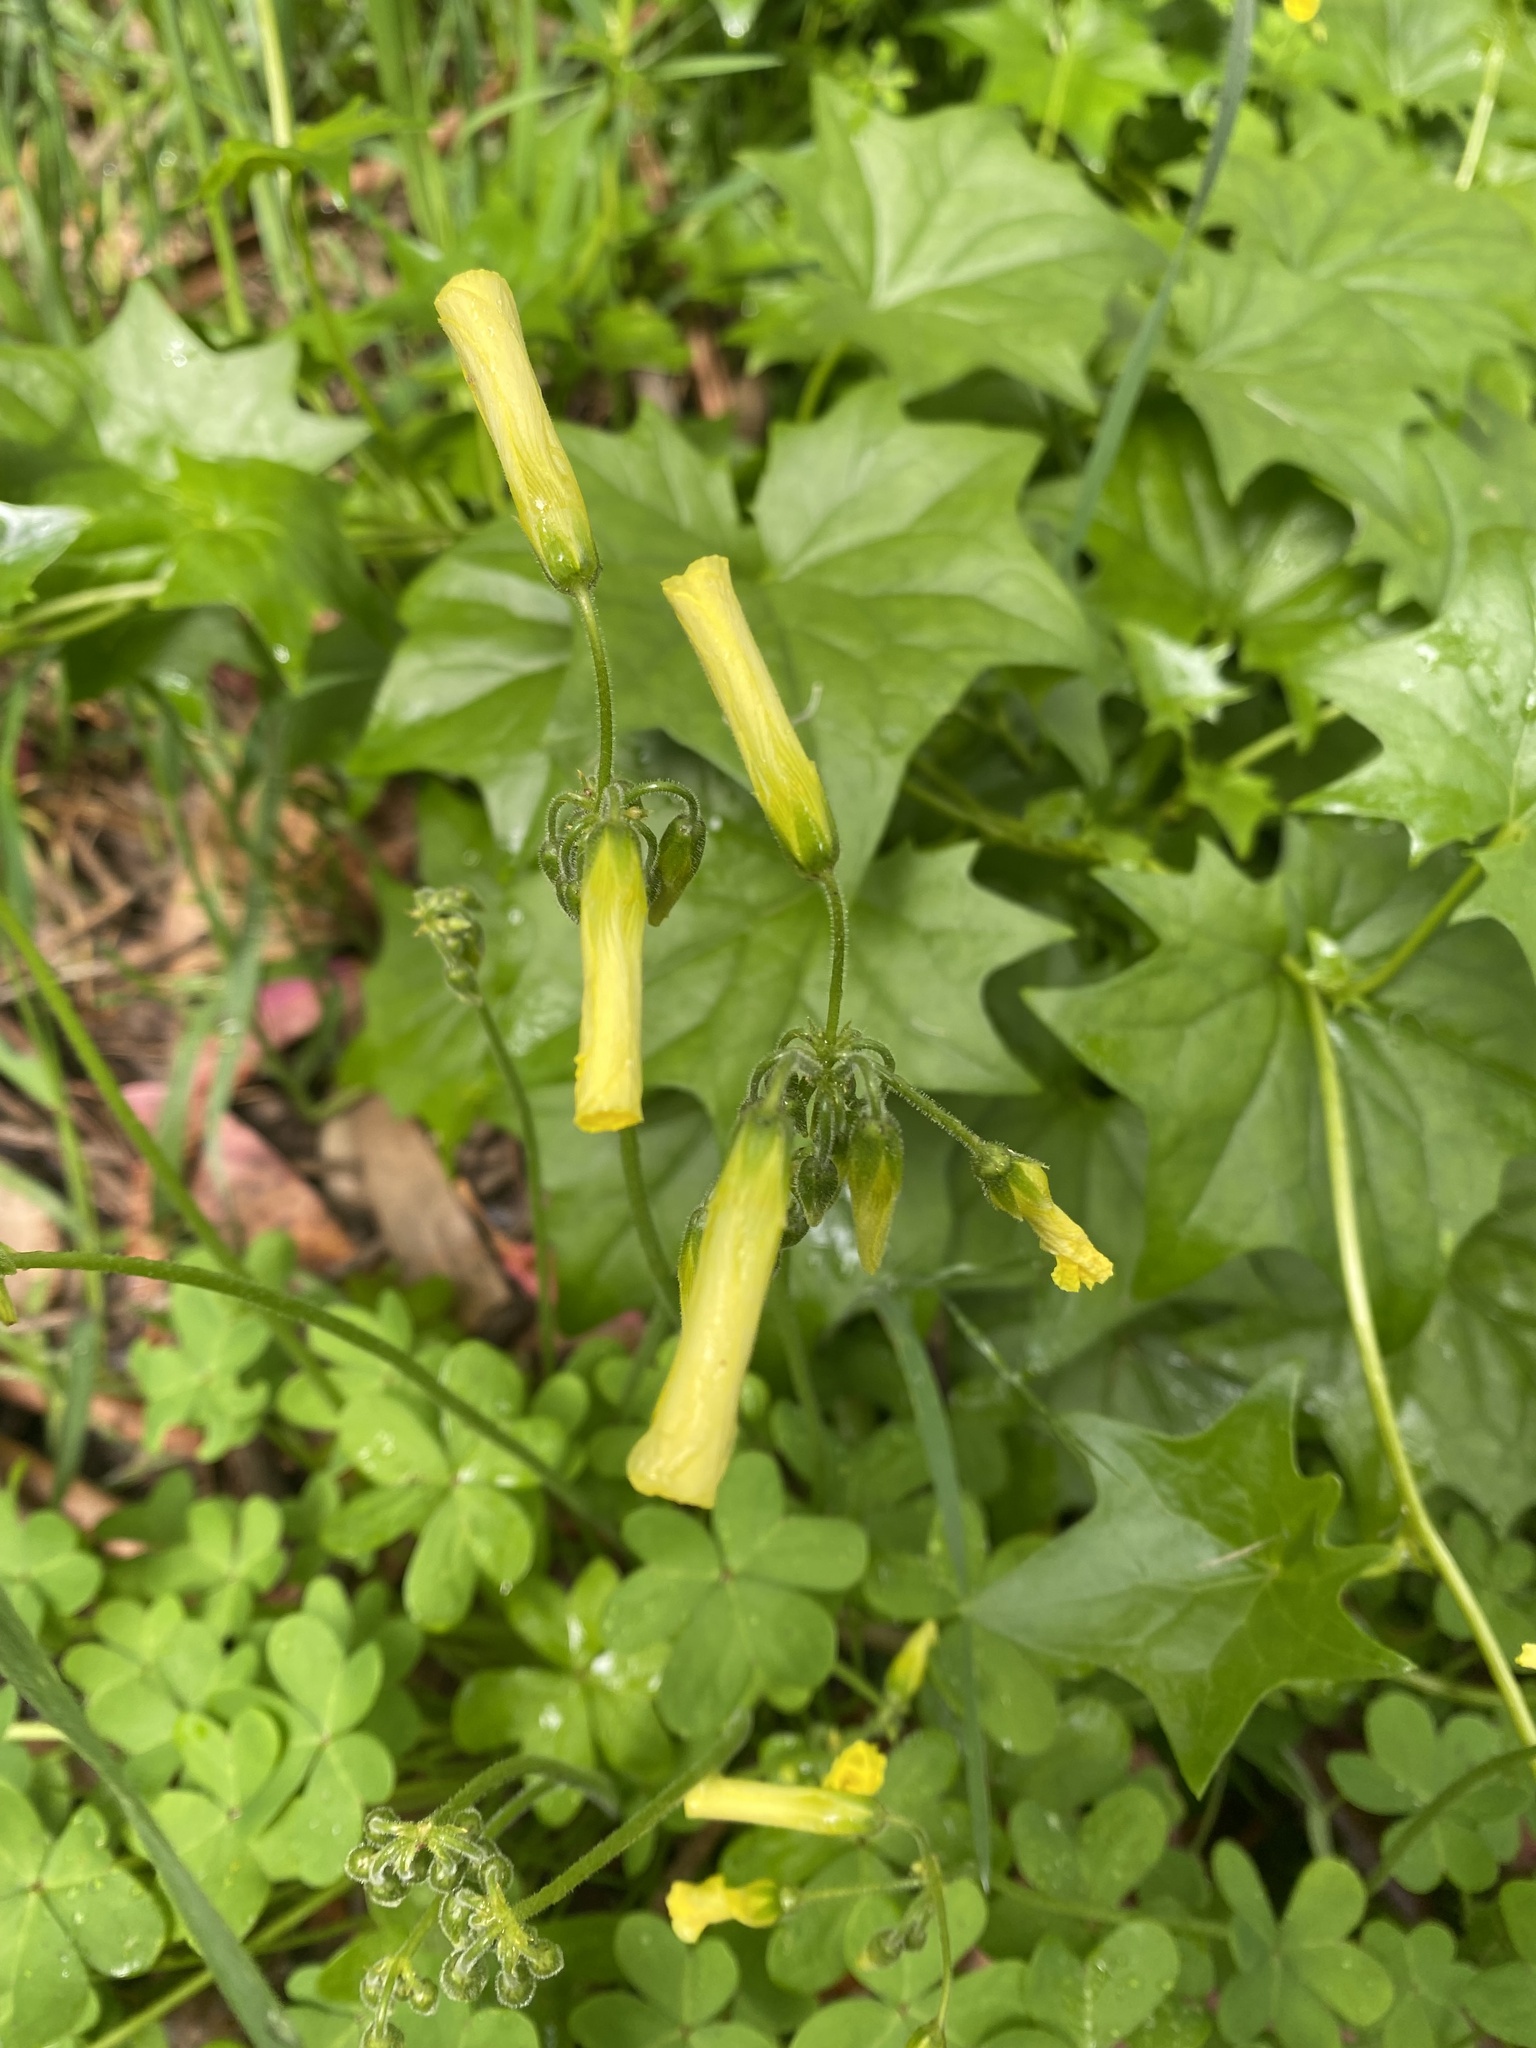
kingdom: Plantae
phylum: Tracheophyta
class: Magnoliopsida
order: Oxalidales
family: Oxalidaceae
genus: Oxalis
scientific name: Oxalis pes-caprae
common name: Bermuda-buttercup
